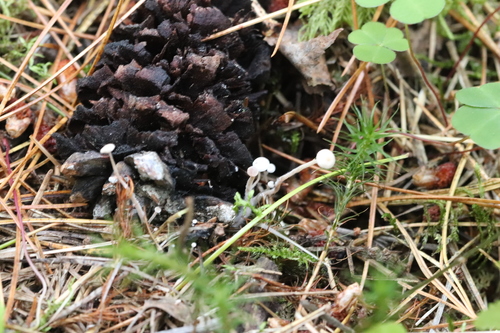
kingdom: Fungi
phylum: Basidiomycota
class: Agaricomycetes
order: Agaricales
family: Tricholomataceae
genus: Collybia
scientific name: Collybia cirrhata
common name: Piggyback shanklet
